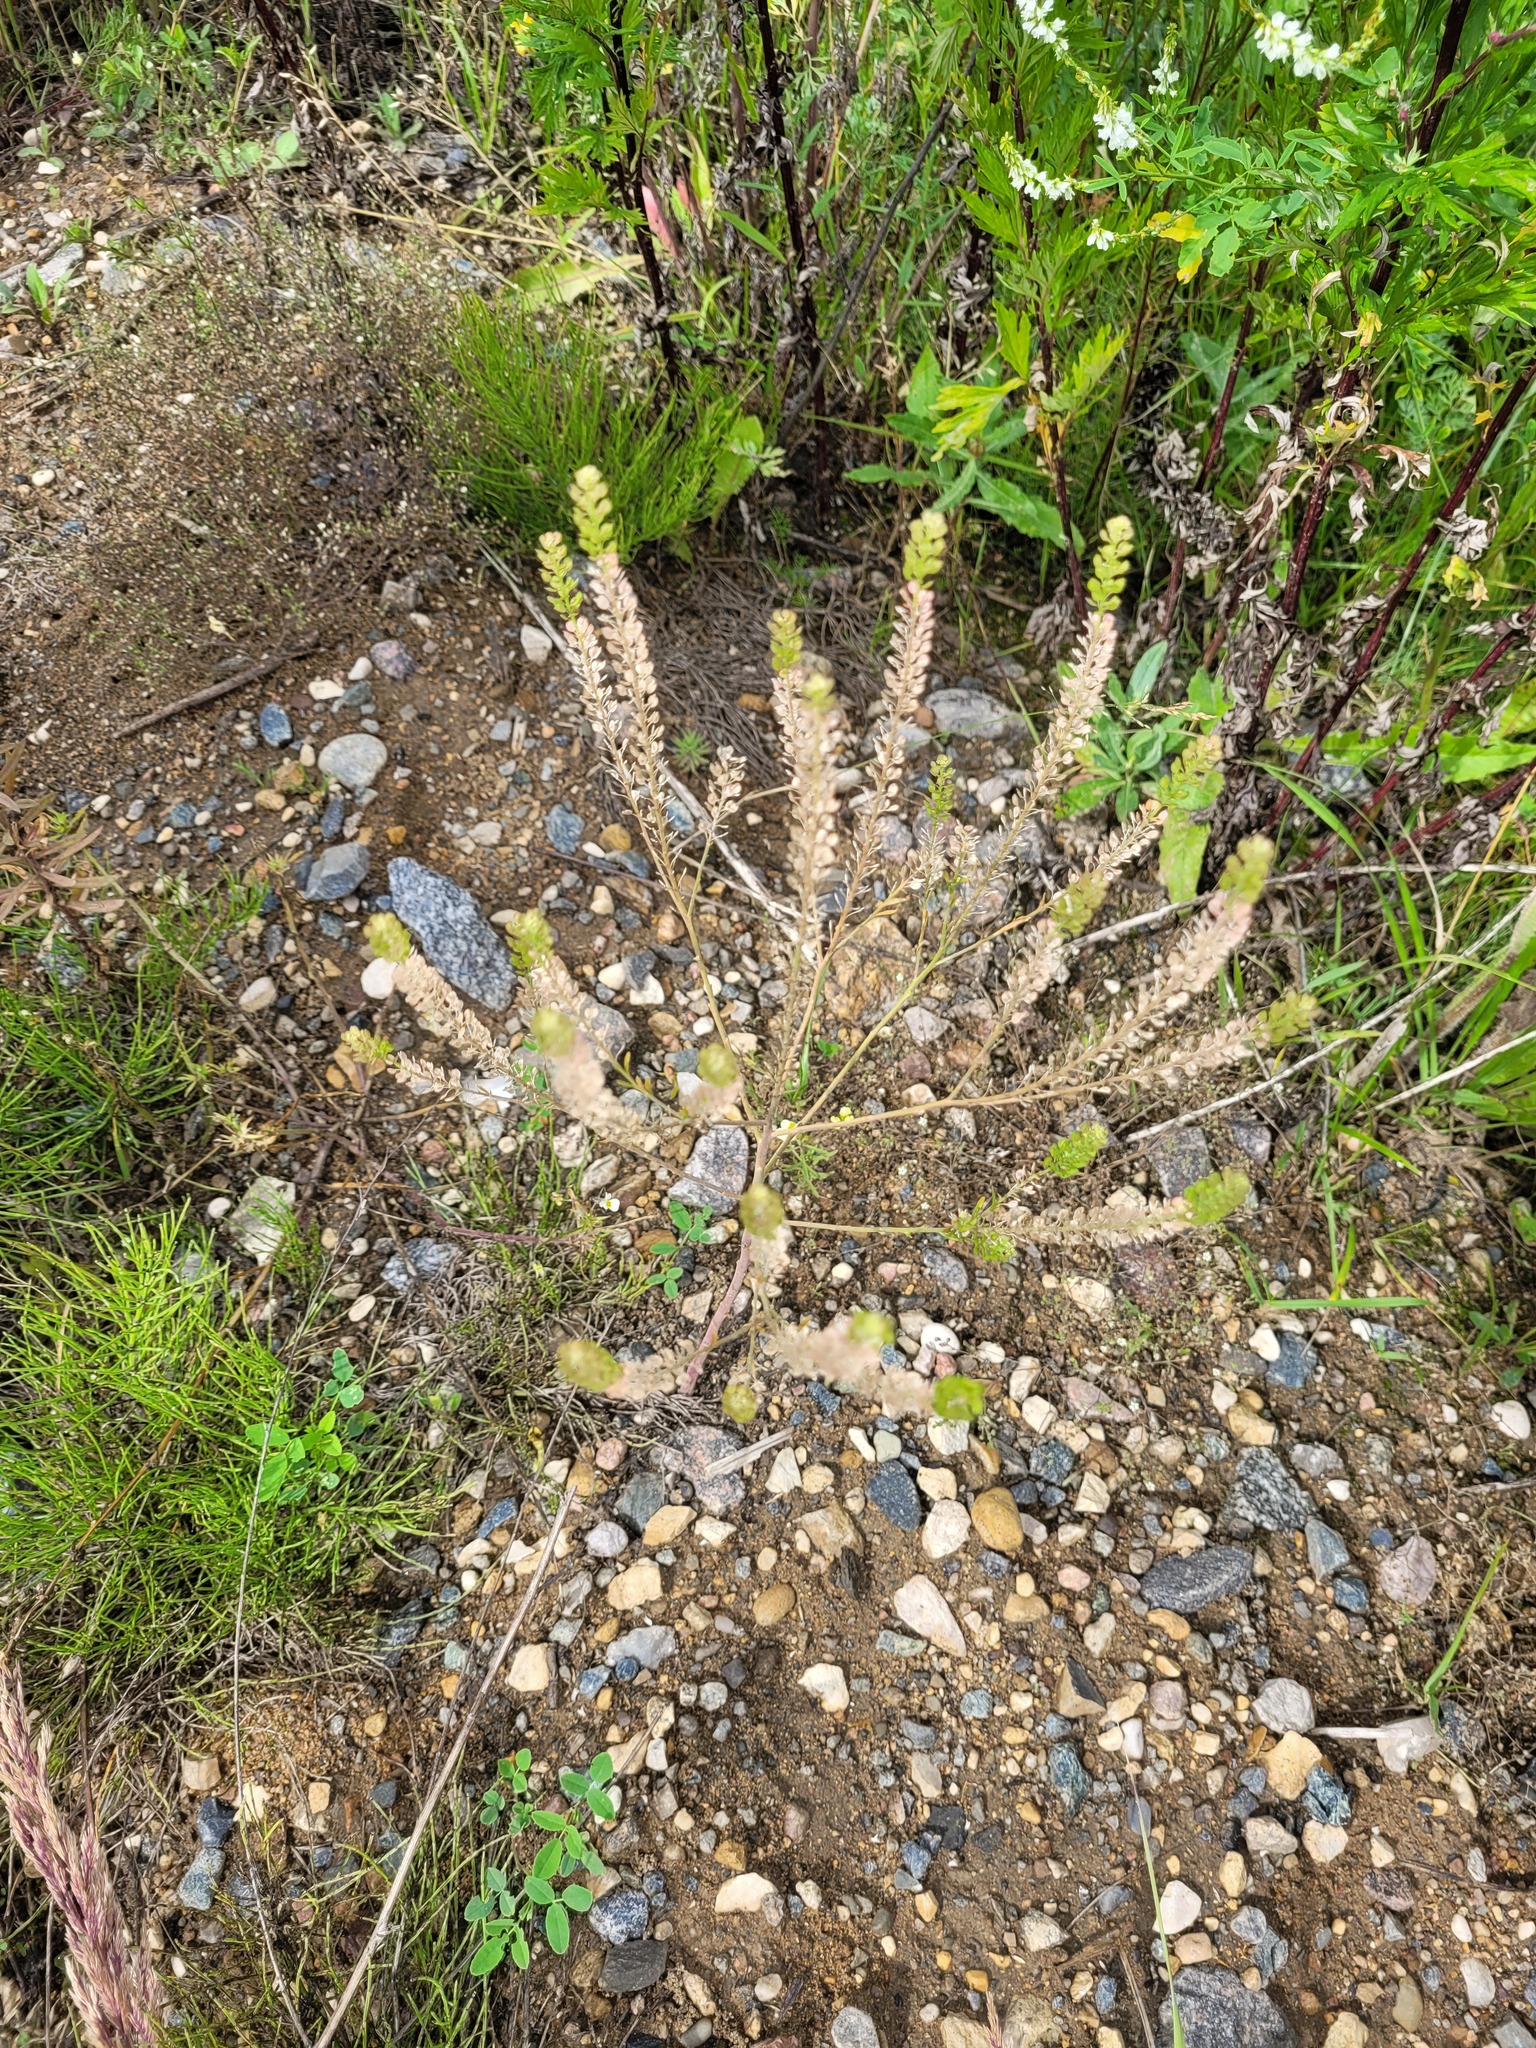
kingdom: Plantae
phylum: Tracheophyta
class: Magnoliopsida
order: Brassicales
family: Brassicaceae
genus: Lepidium
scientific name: Lepidium densiflorum
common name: Miner's pepperwort
